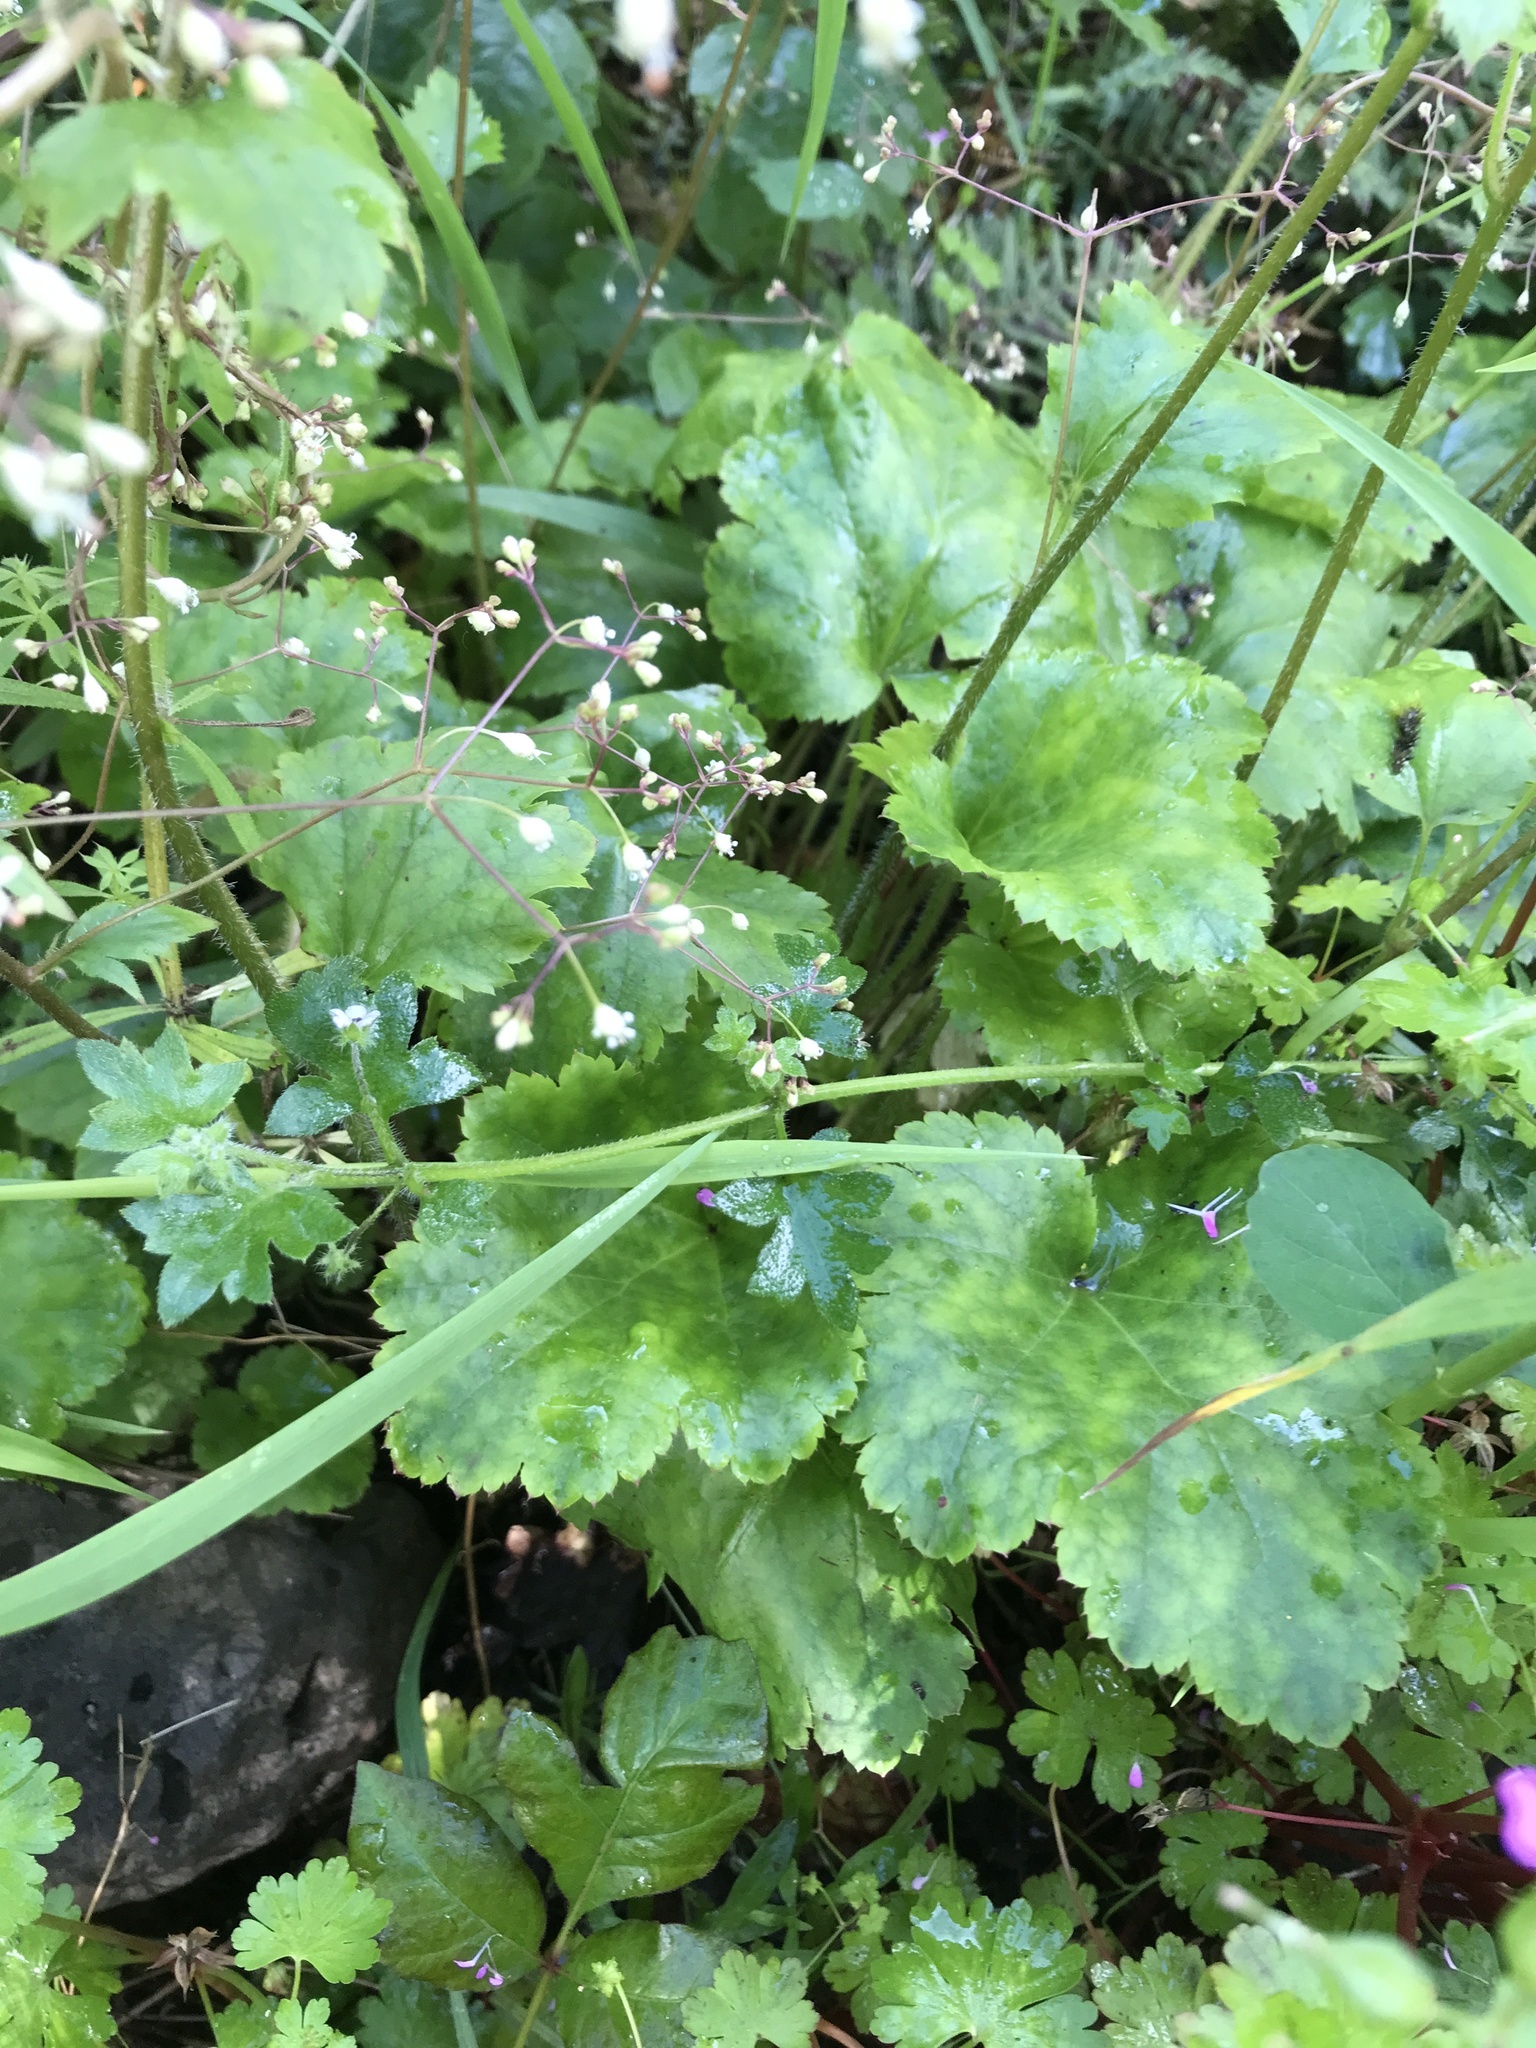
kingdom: Plantae
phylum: Tracheophyta
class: Magnoliopsida
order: Saxifragales
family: Saxifragaceae
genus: Heuchera
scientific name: Heuchera micrantha
